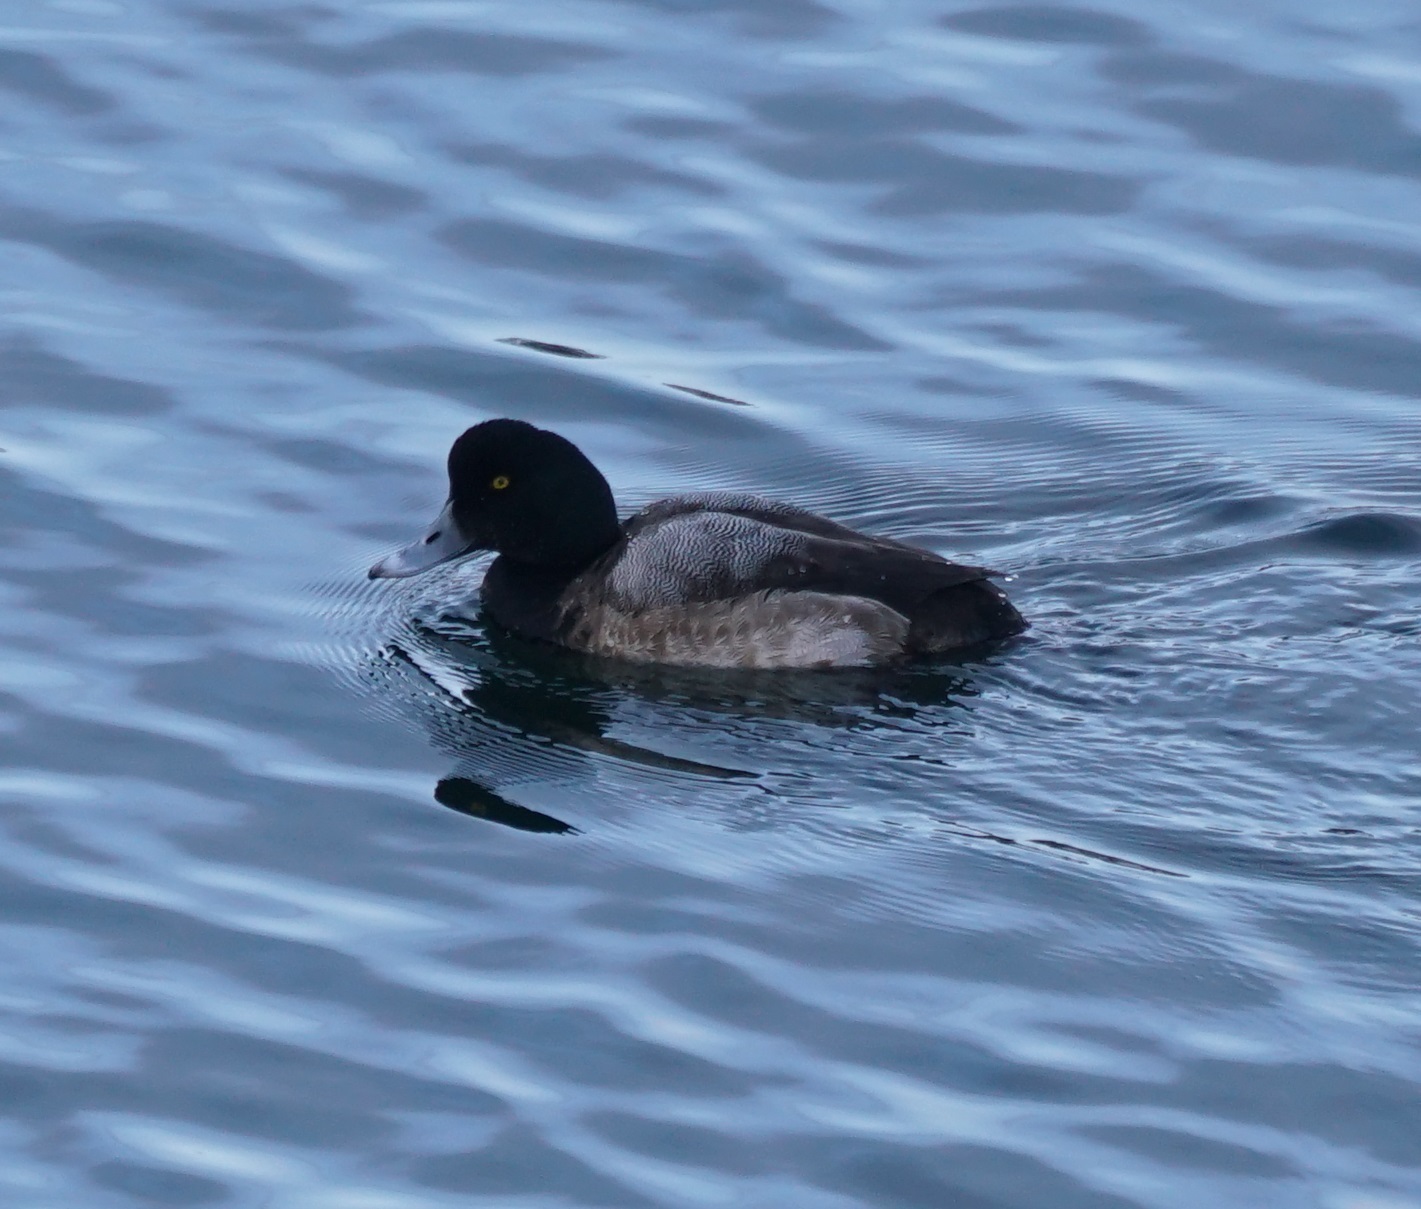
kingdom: Animalia
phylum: Chordata
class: Aves
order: Anseriformes
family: Anatidae
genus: Aythya
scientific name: Aythya marila
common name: Greater scaup
